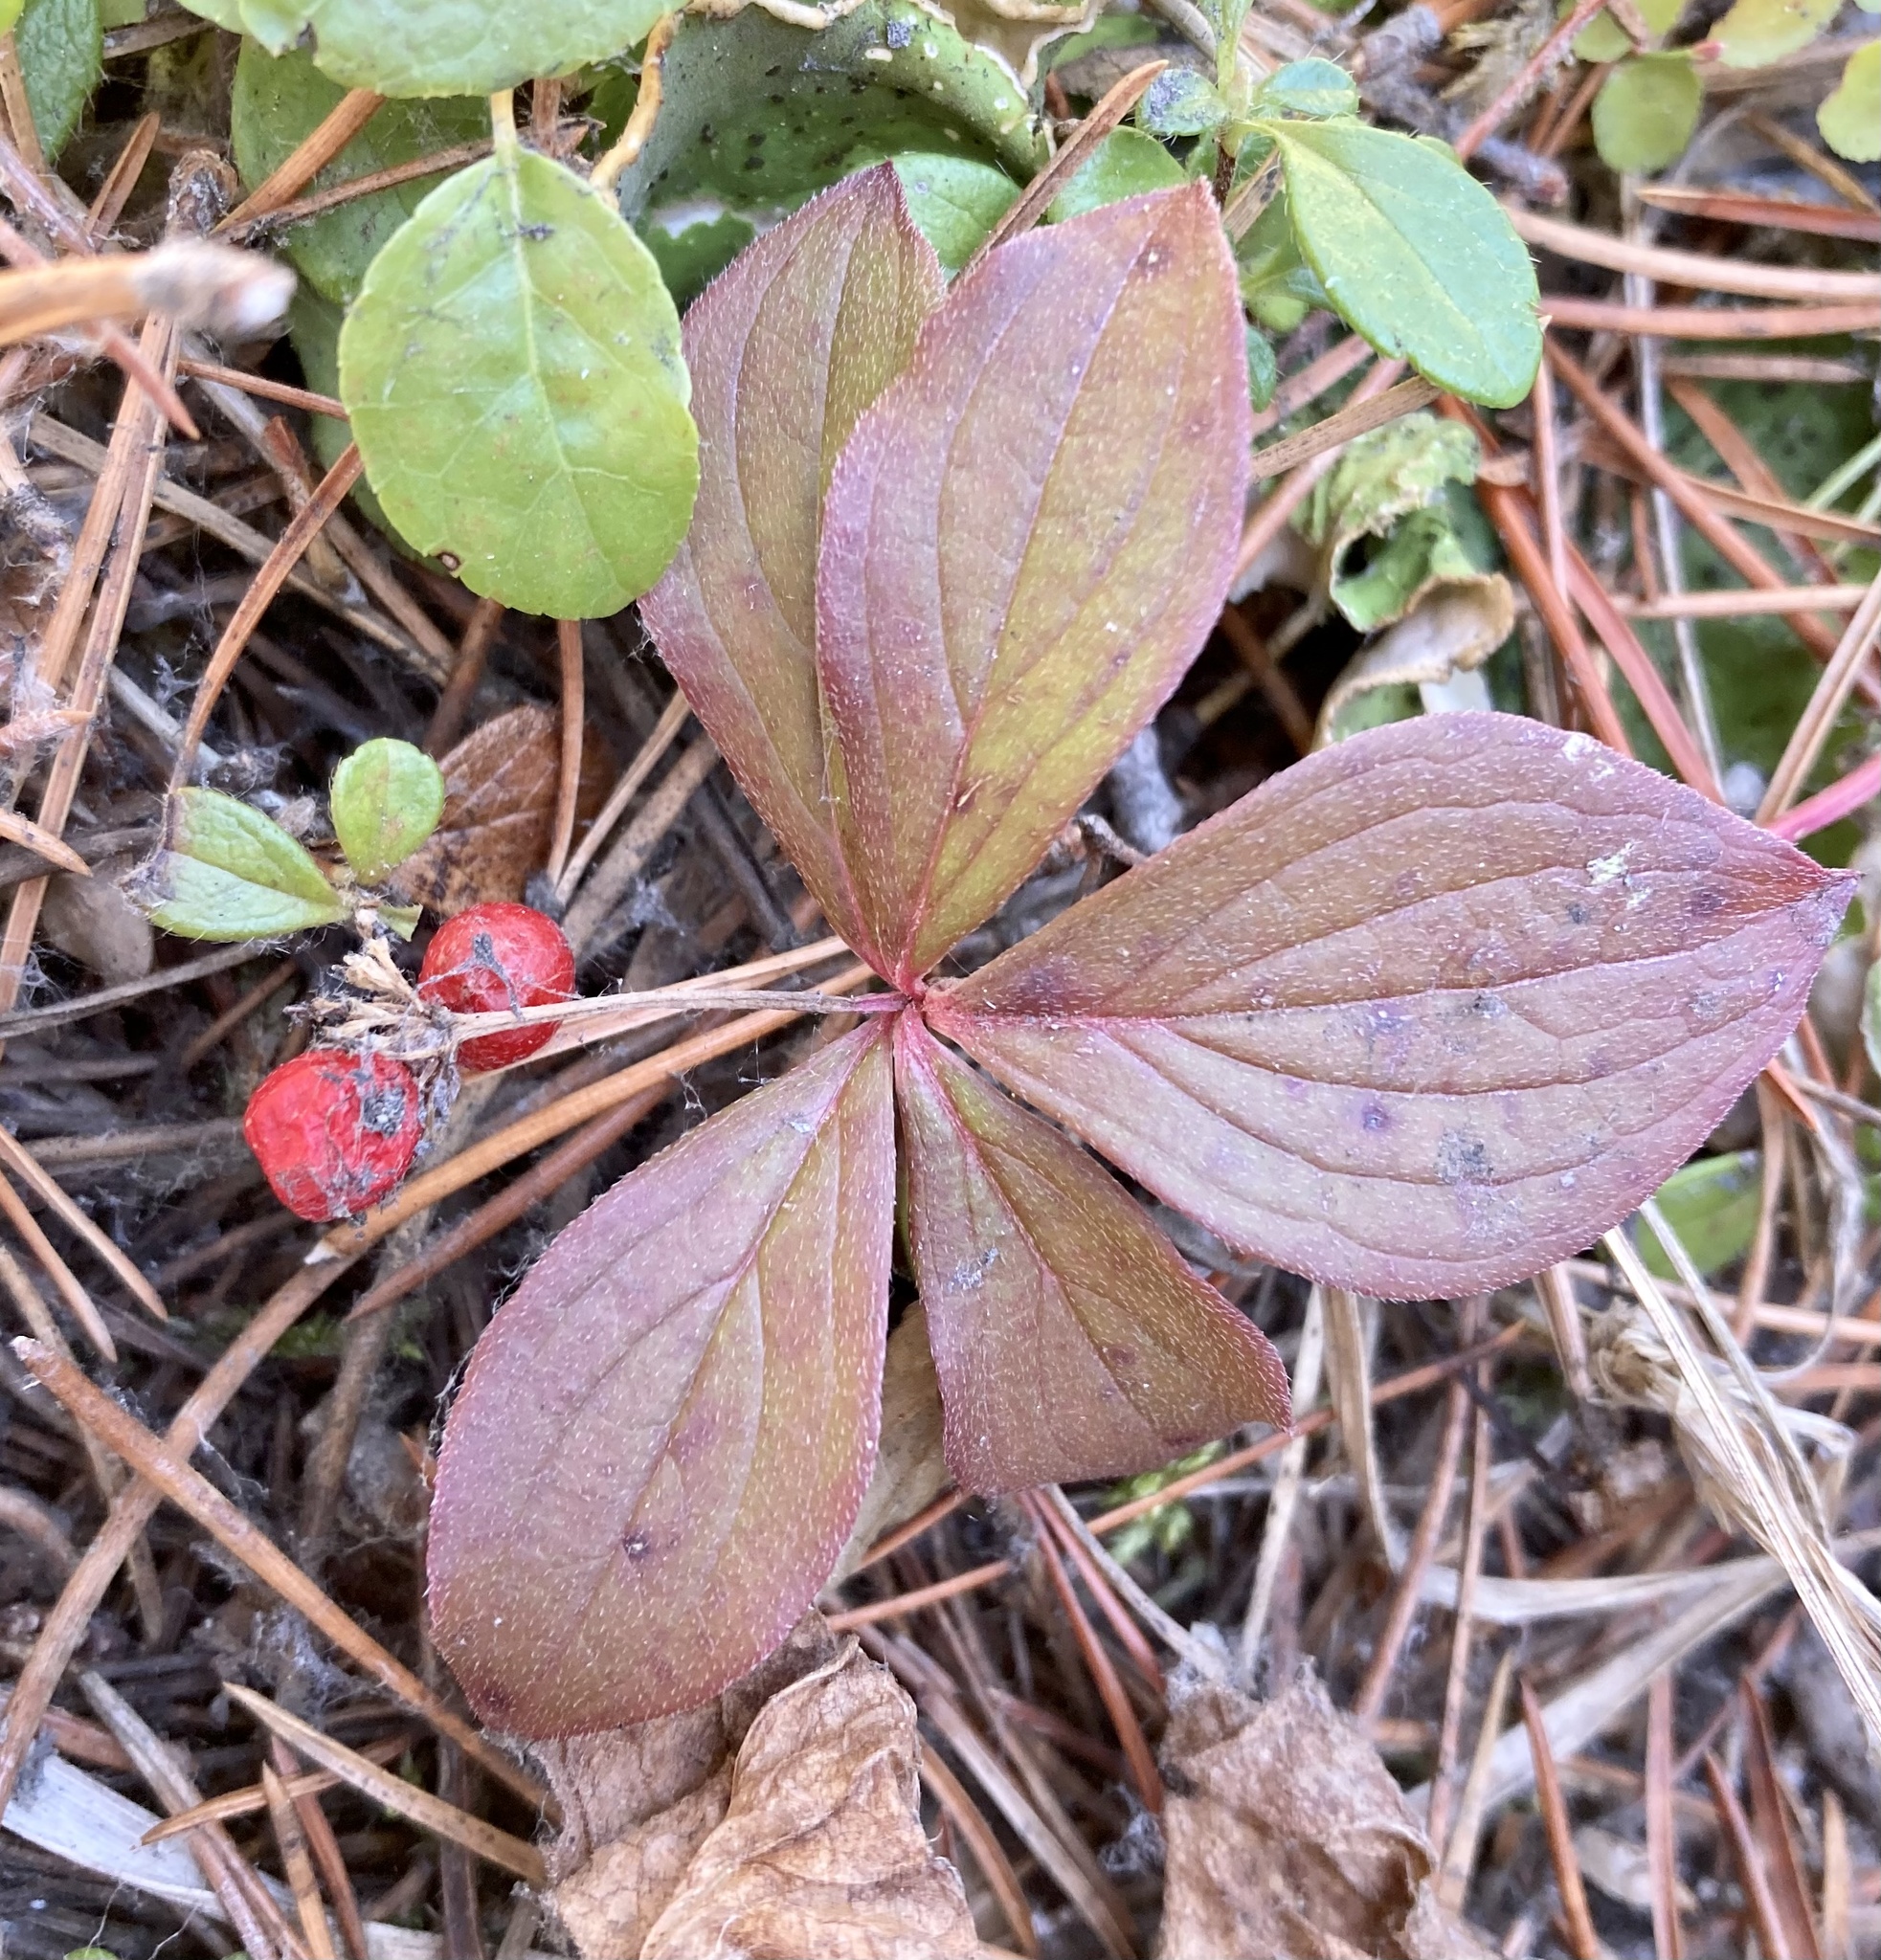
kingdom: Plantae
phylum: Tracheophyta
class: Magnoliopsida
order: Cornales
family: Cornaceae
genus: Cornus
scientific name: Cornus canadensis
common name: Creeping dogwood
